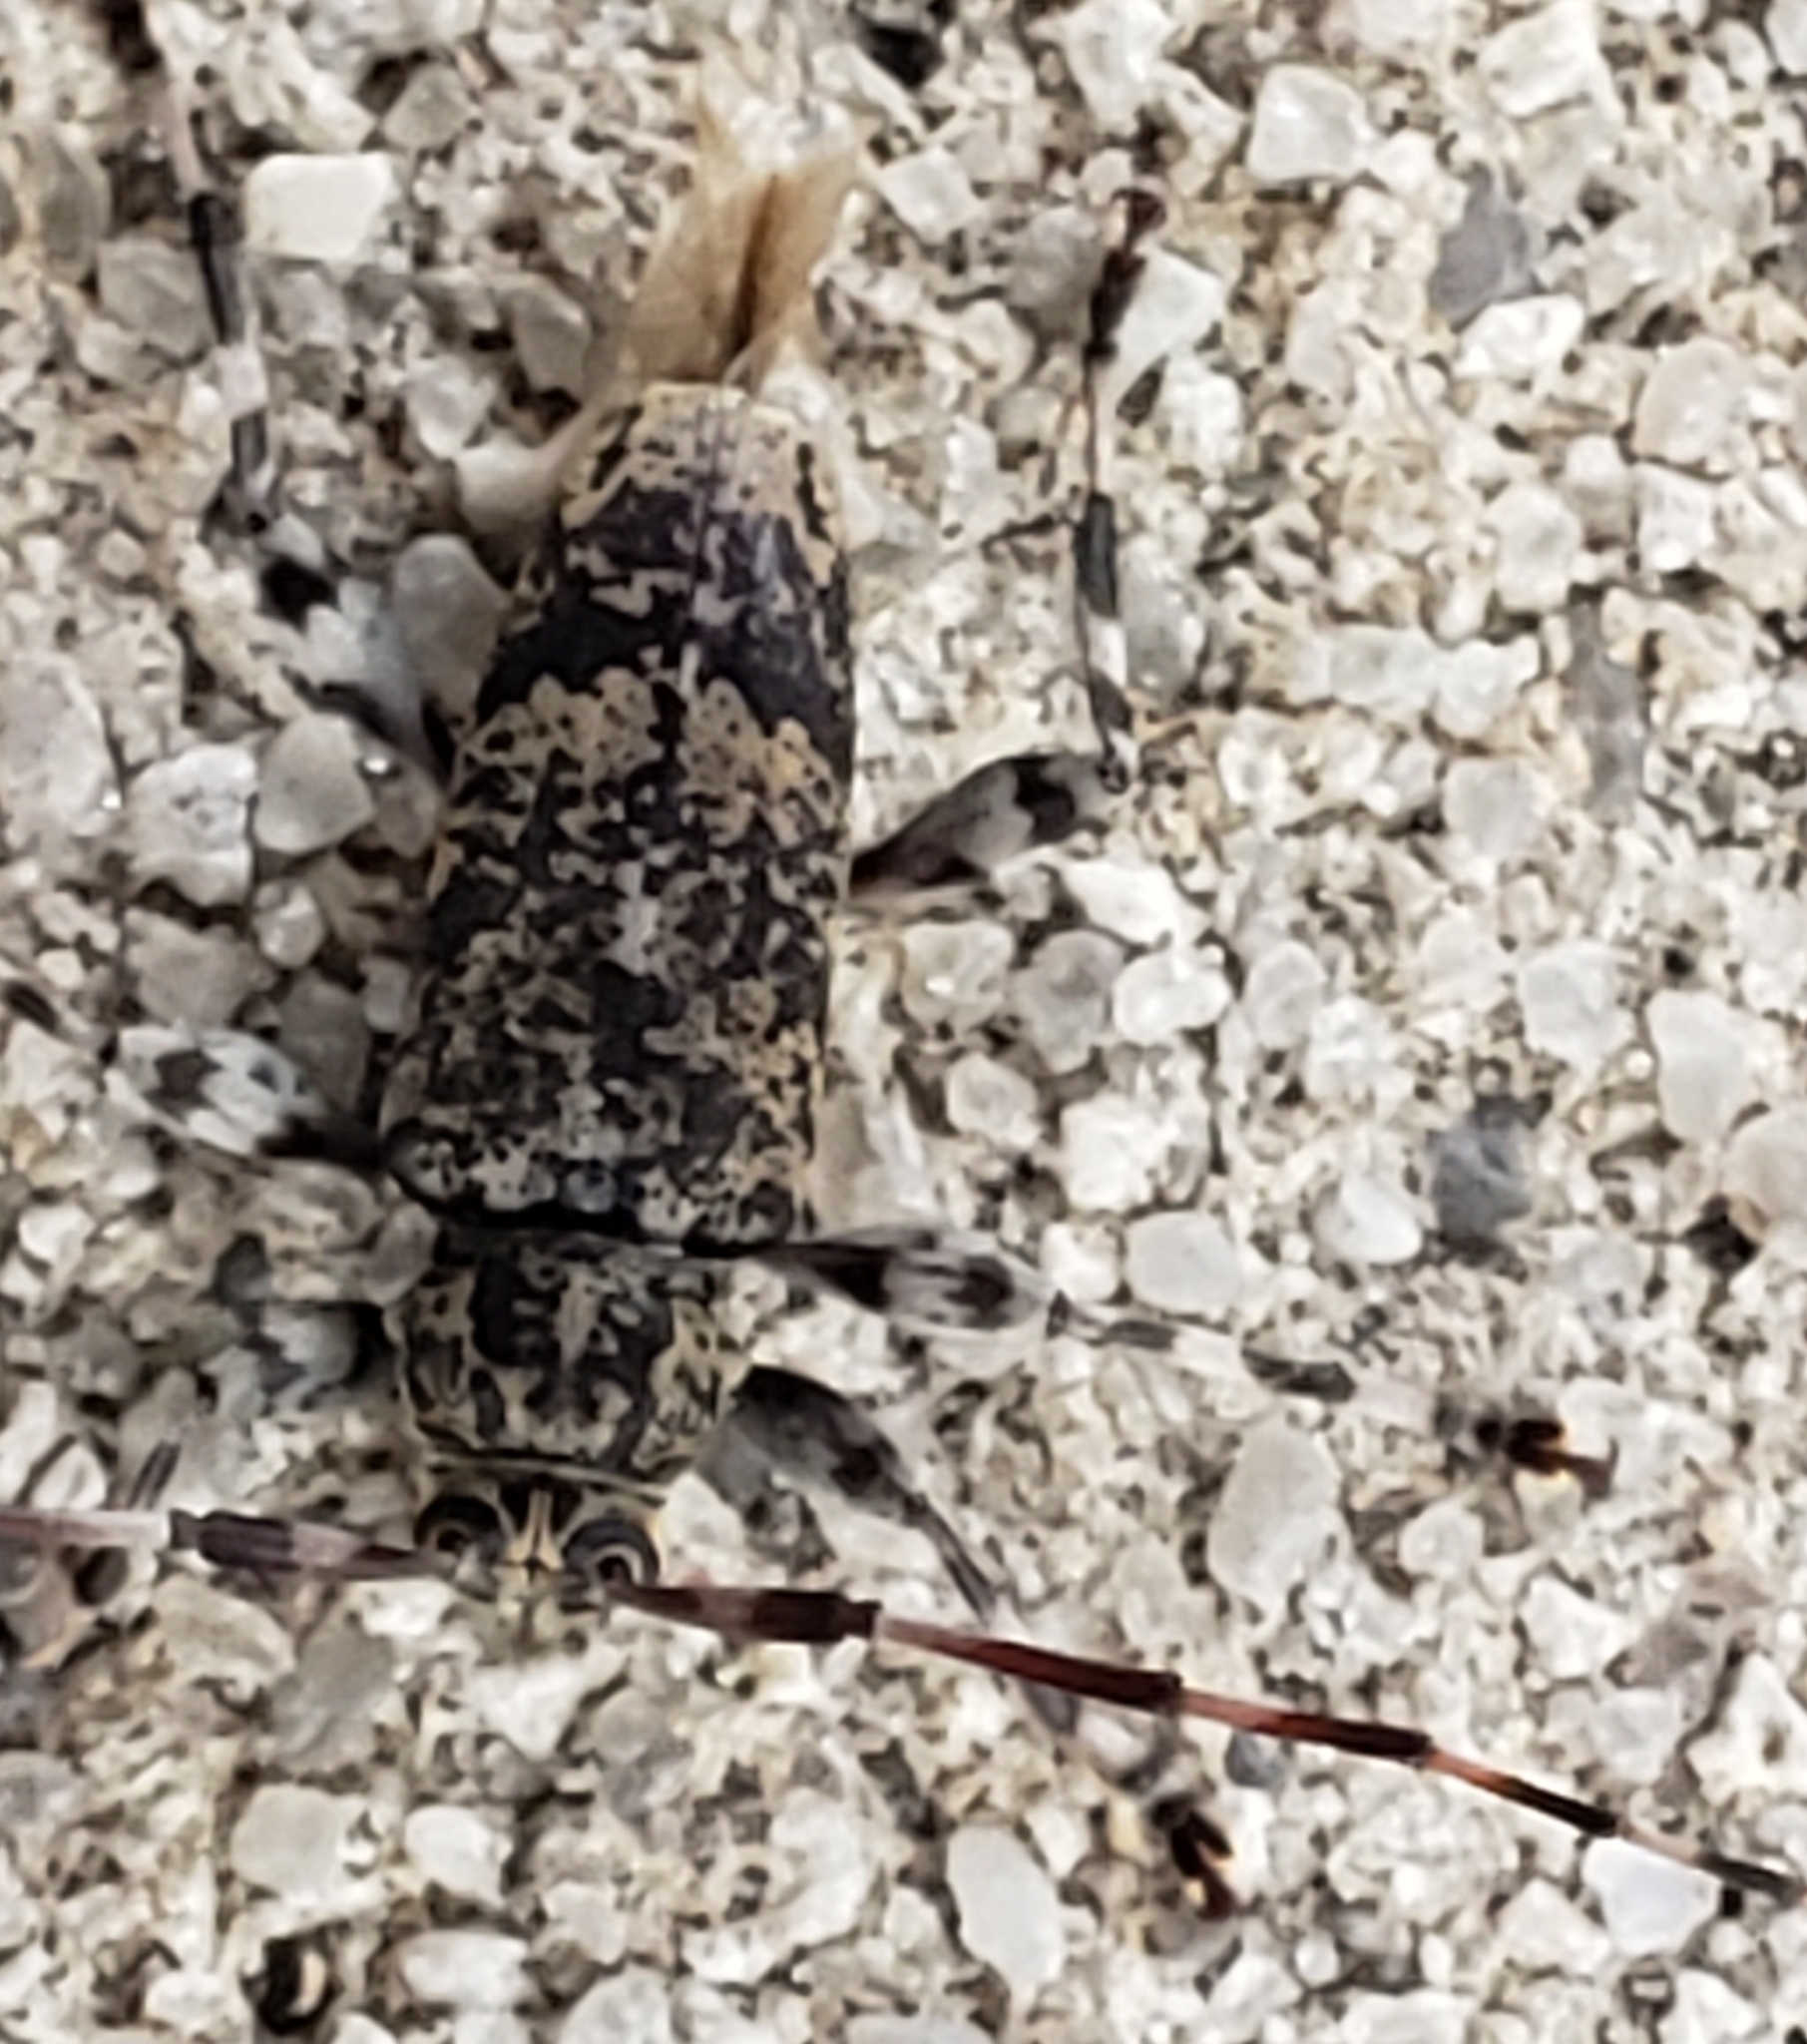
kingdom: Animalia
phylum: Arthropoda
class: Insecta
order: Coleoptera
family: Cerambycidae
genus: Graphisurus
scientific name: Graphisurus fasciatus
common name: Banded graphisurus
